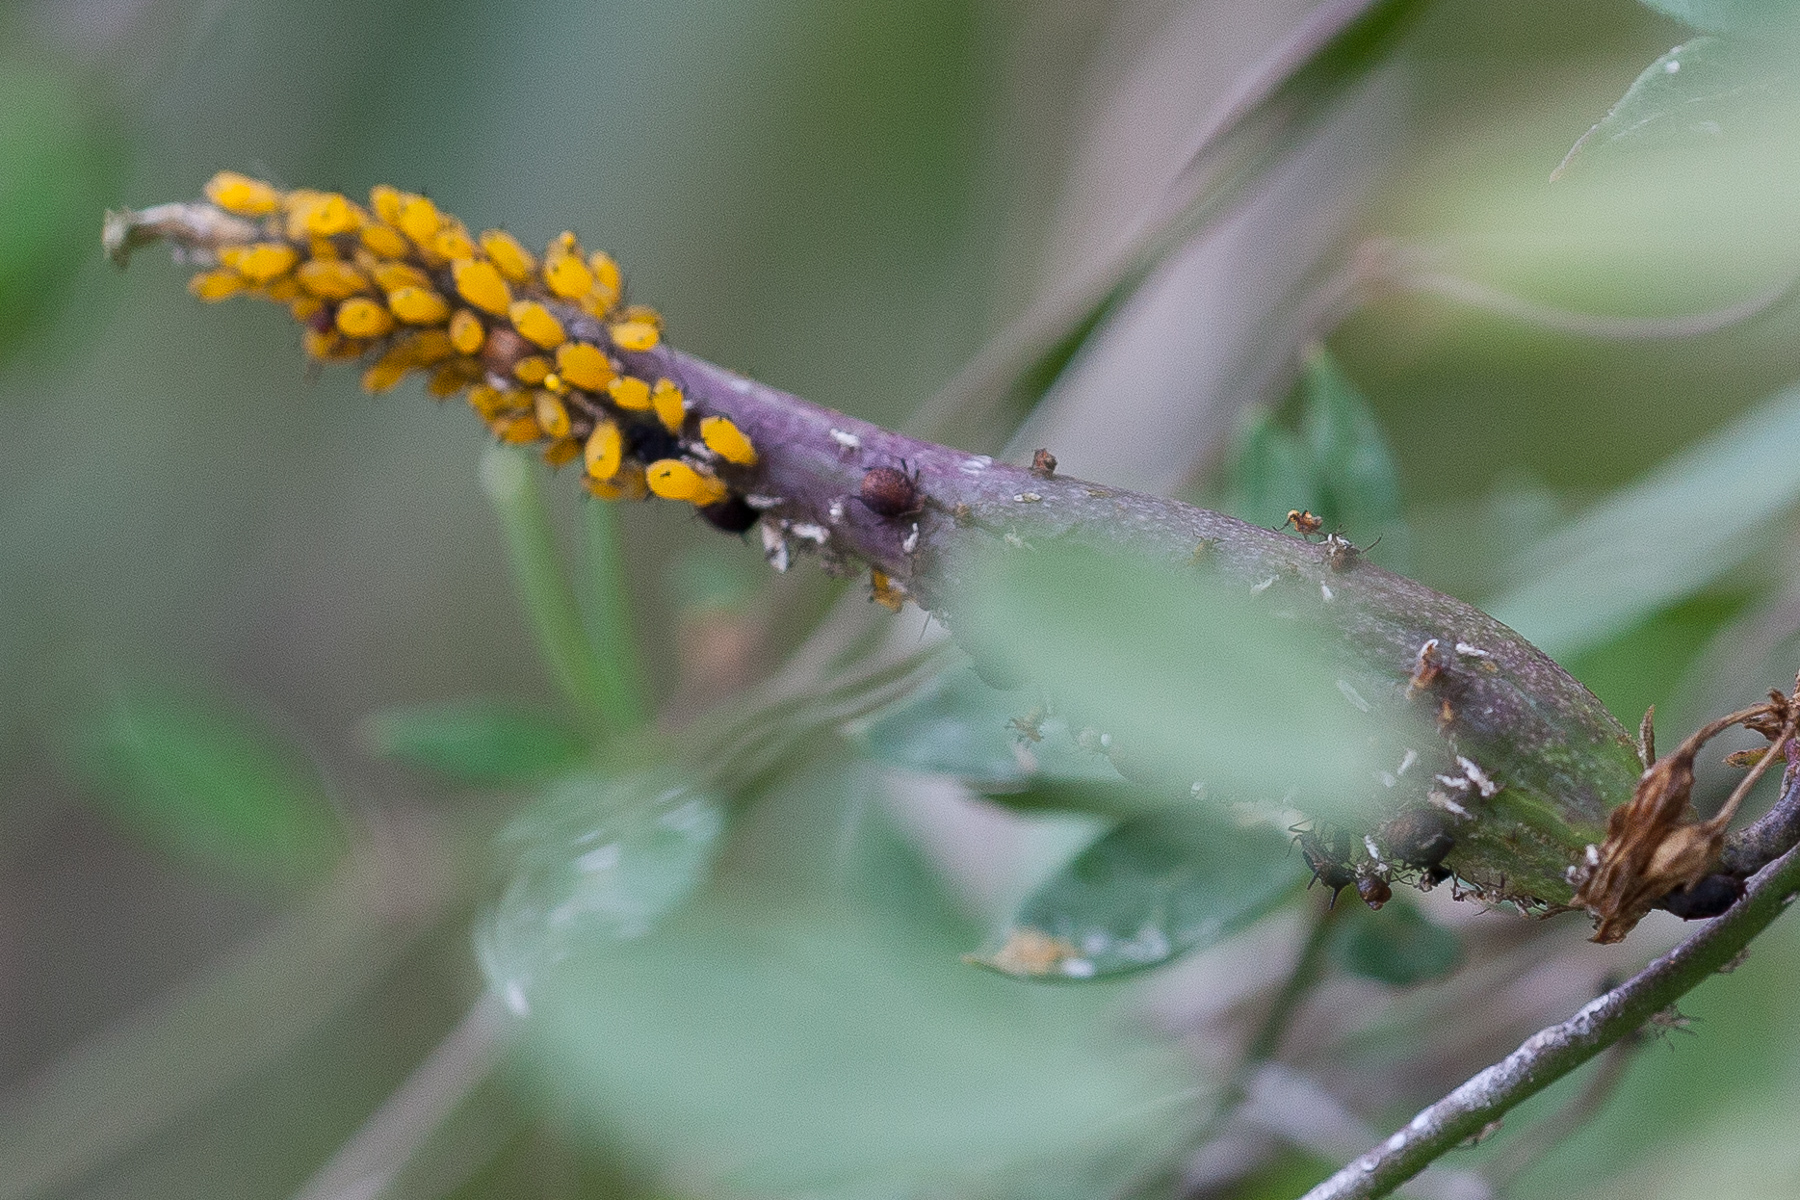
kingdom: Animalia
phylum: Arthropoda
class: Insecta
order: Hemiptera
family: Aphididae
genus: Aphis
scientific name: Aphis nerii
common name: Oleander aphid
